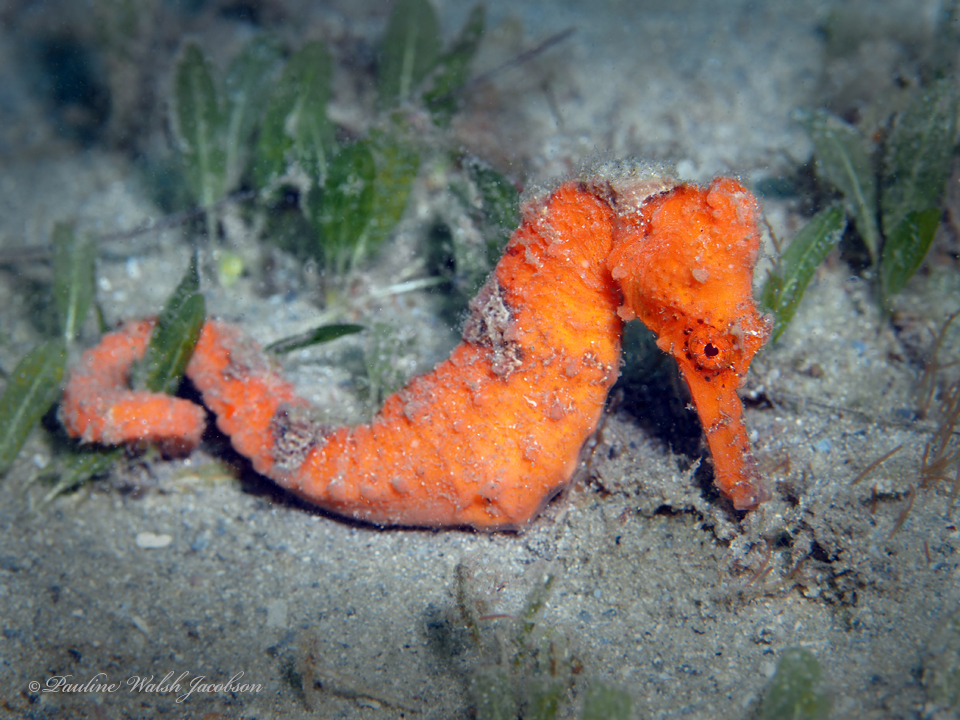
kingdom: Animalia
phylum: Chordata
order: Syngnathiformes
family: Syngnathidae
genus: Hippocampus
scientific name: Hippocampus reidi
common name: Slender seahorse
